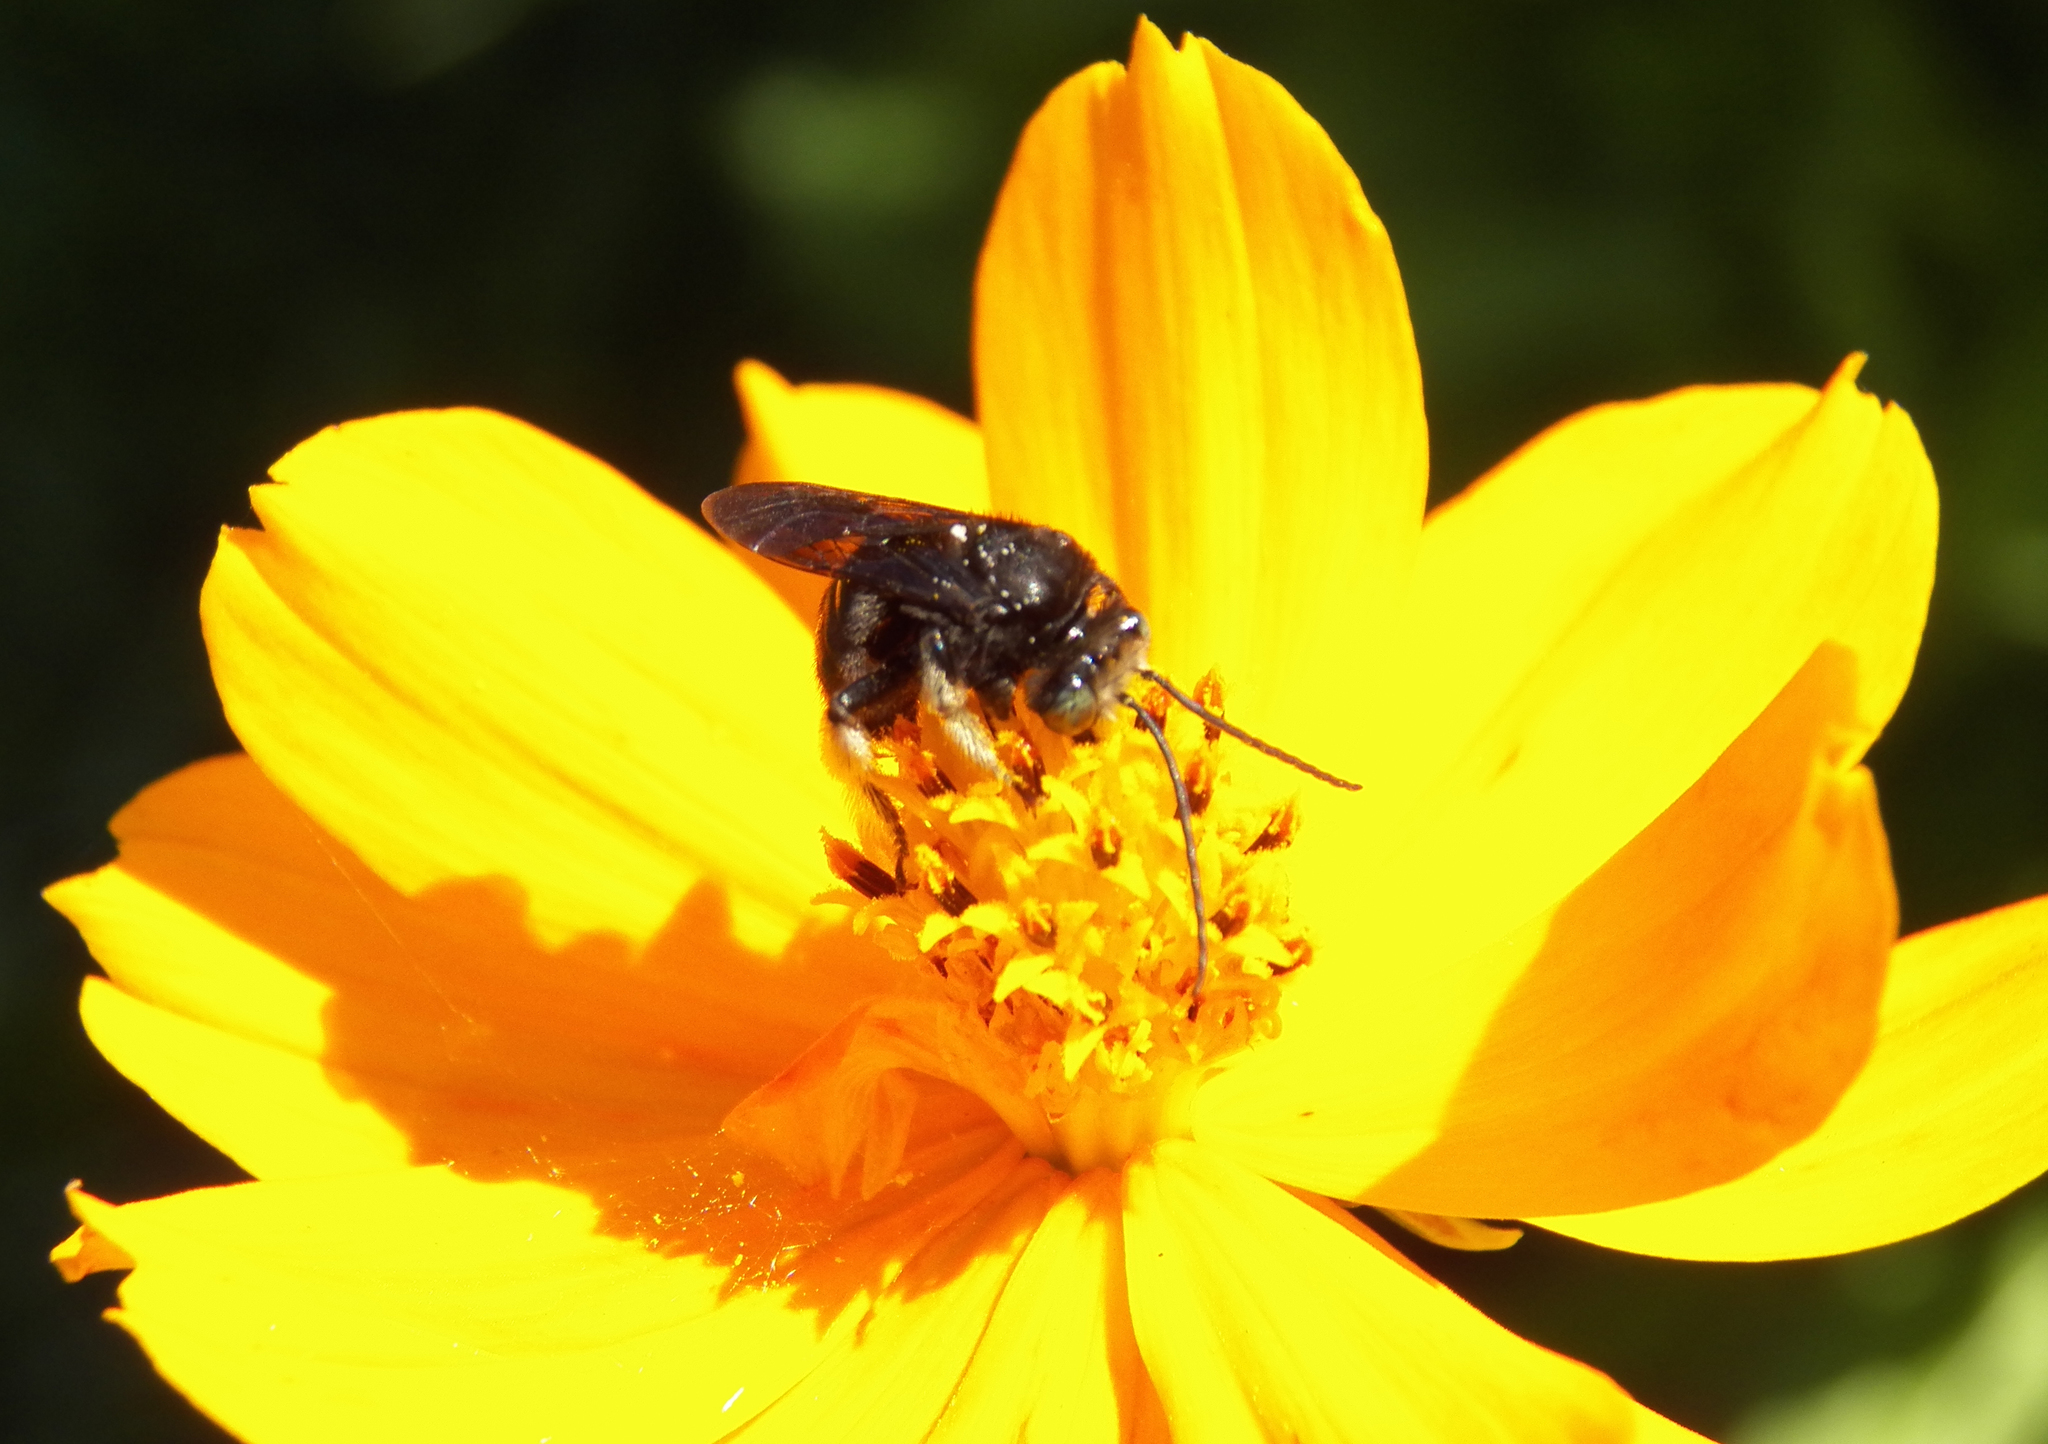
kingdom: Animalia
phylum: Arthropoda
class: Insecta
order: Hymenoptera
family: Apidae
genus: Melissodes
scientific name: Melissodes bimaculatus
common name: Two-spotted long-horned bee
